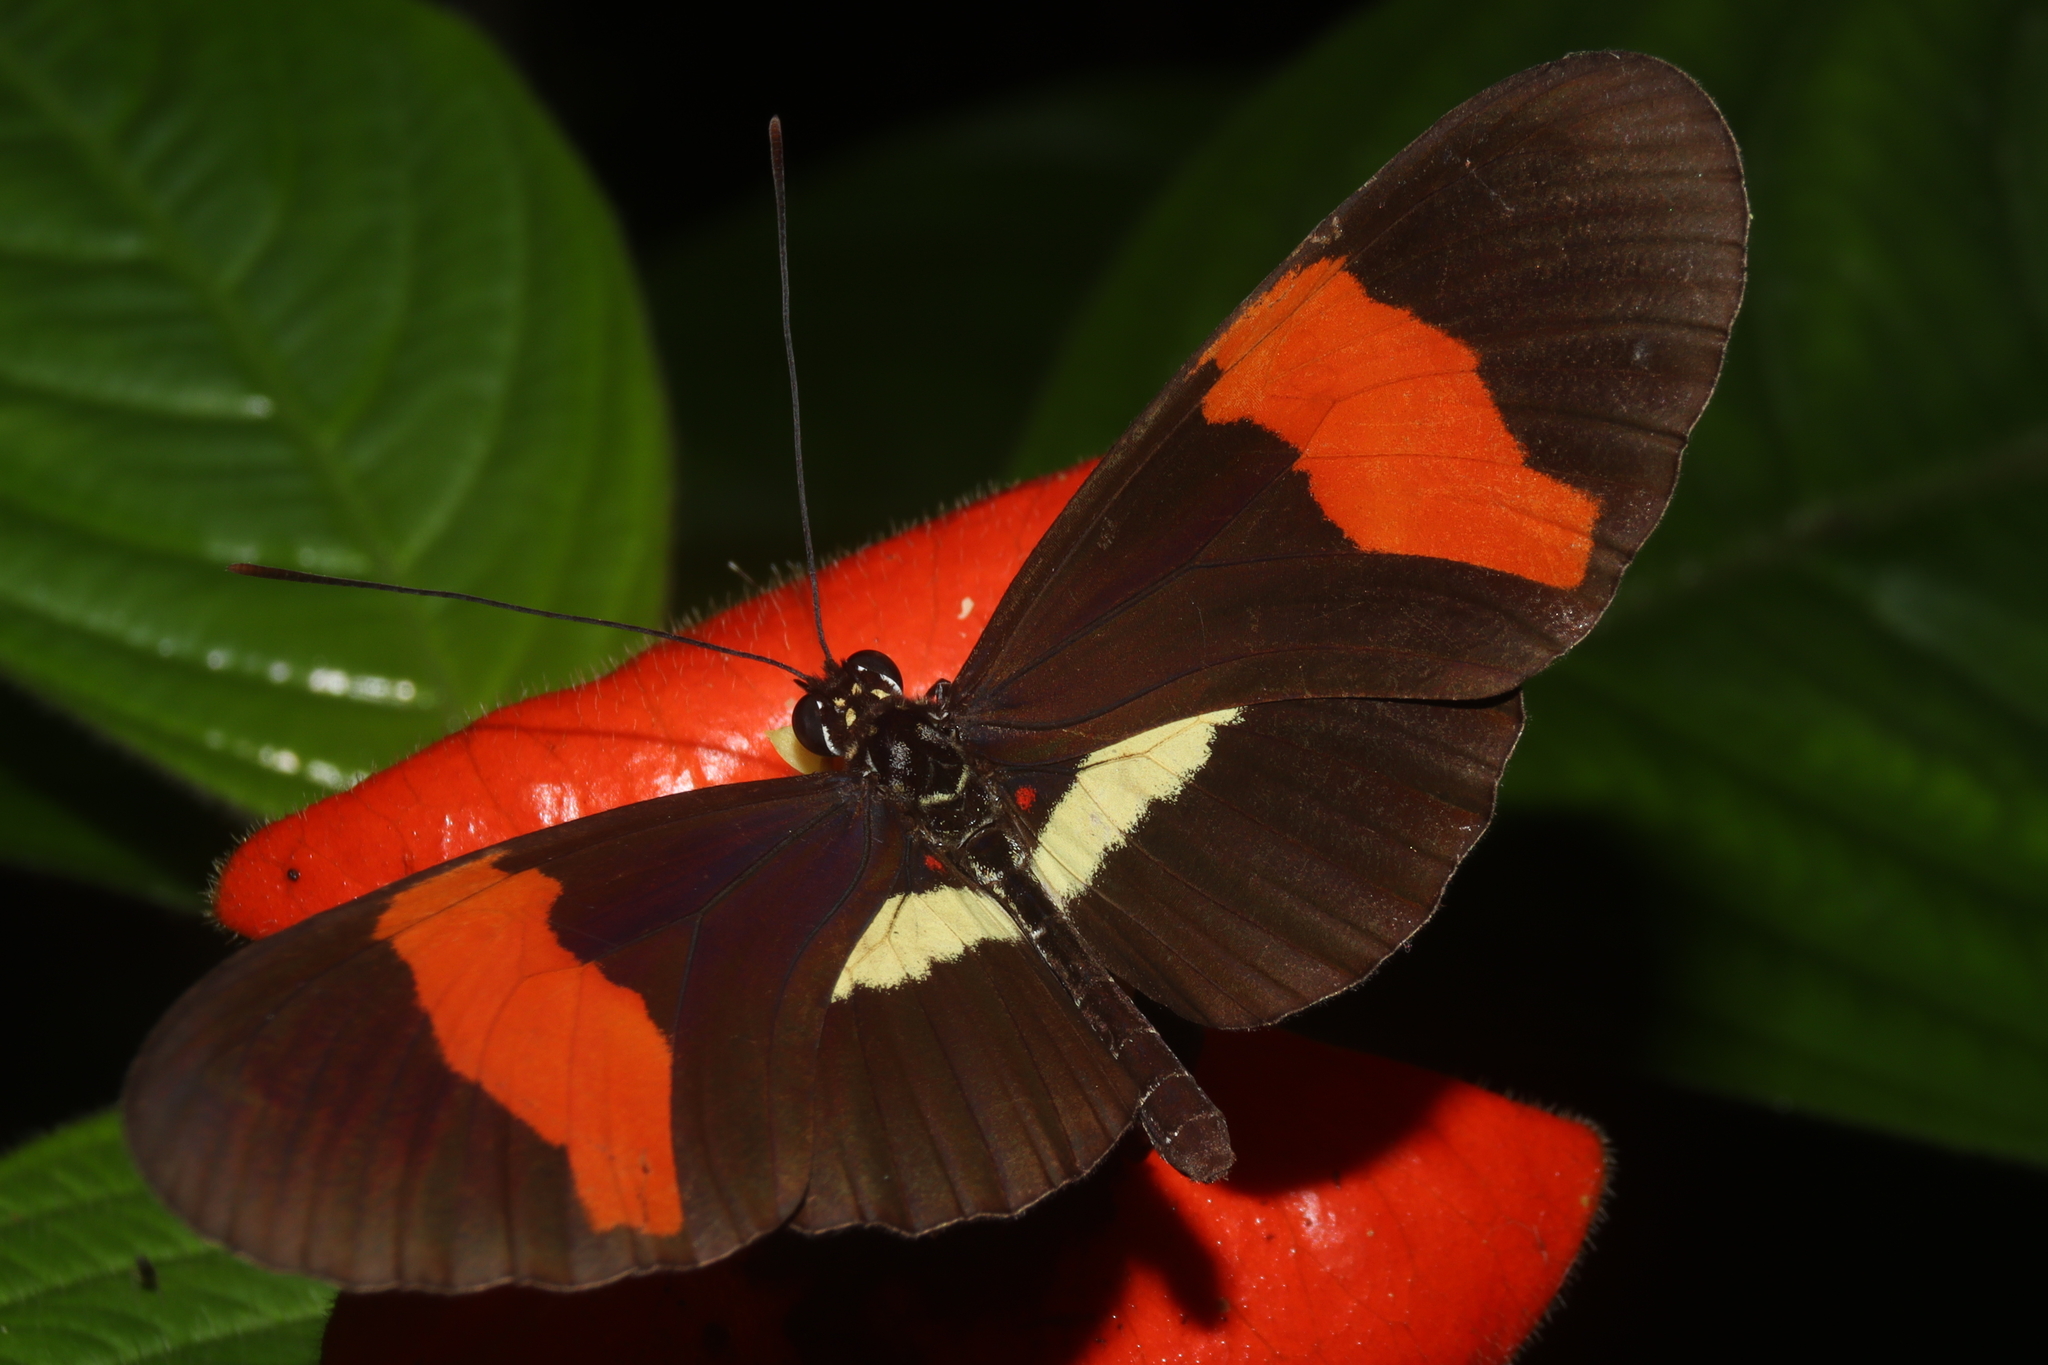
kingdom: Animalia
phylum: Arthropoda
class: Insecta
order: Lepidoptera
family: Nymphalidae
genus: Tirumala
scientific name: Tirumala petiverana
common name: Blue monarch
